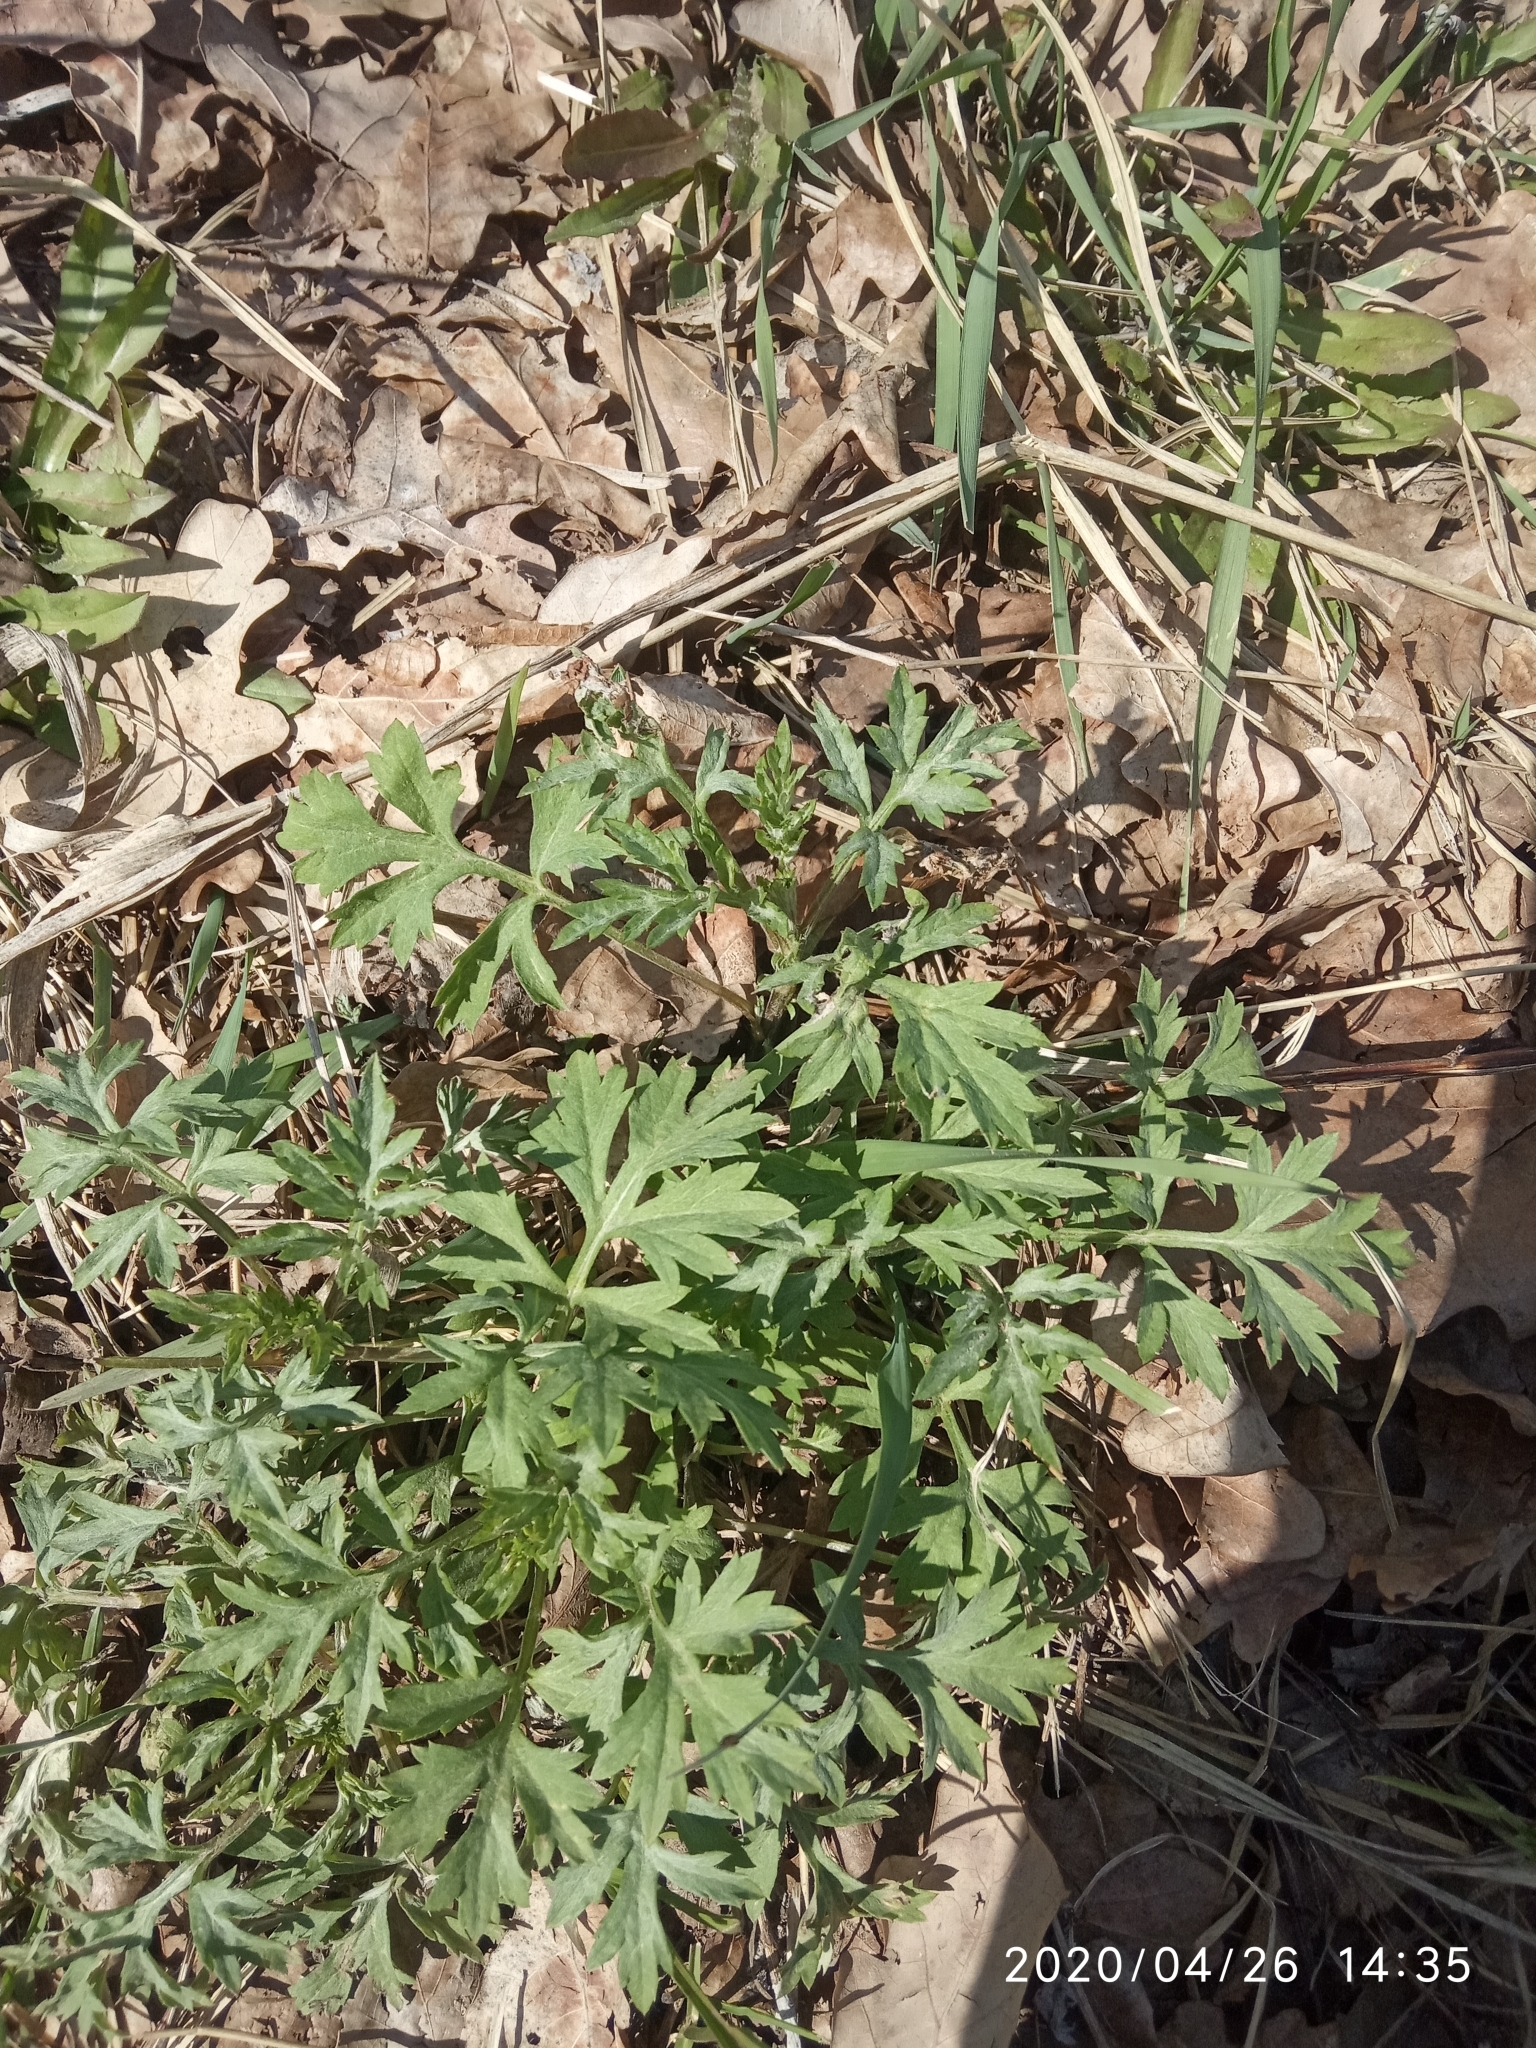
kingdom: Plantae
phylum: Tracheophyta
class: Magnoliopsida
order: Asterales
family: Asteraceae
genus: Artemisia
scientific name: Artemisia vulgaris
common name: Mugwort
